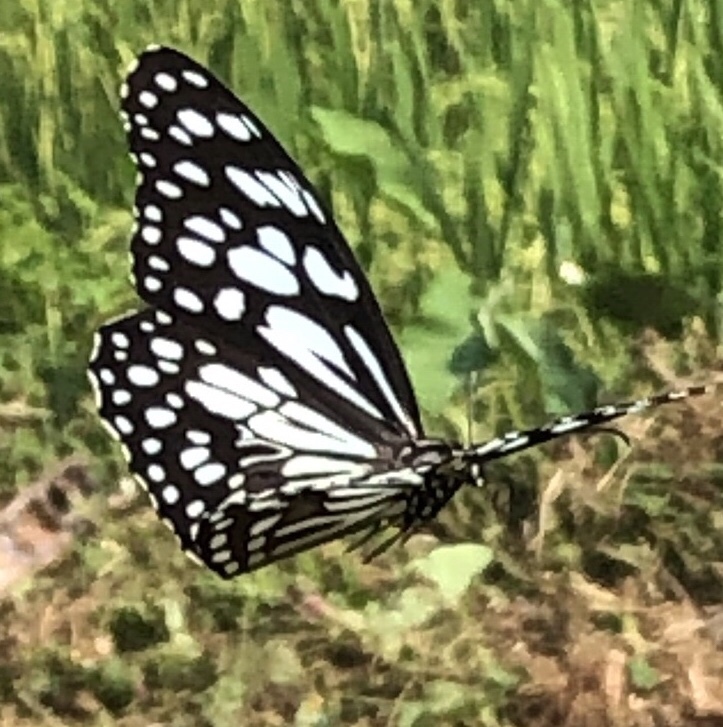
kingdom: Animalia
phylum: Arthropoda
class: Insecta
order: Lepidoptera
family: Nymphalidae
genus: Tirumala
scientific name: Tirumala limniace
